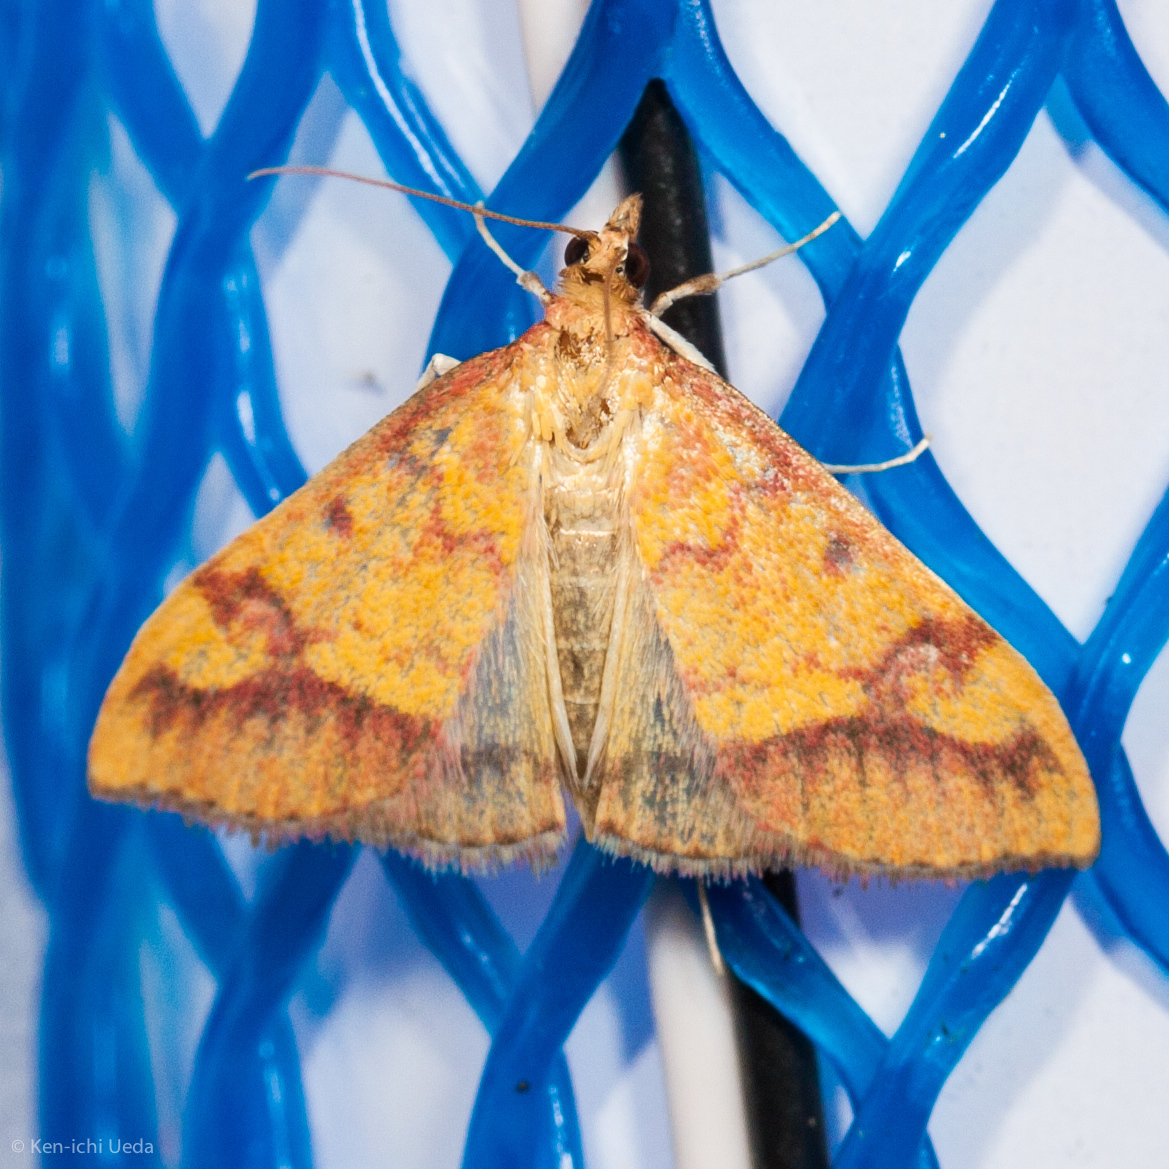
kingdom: Animalia
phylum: Arthropoda
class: Insecta
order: Lepidoptera
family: Crambidae
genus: Pyrausta
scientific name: Pyrausta perrubralis
